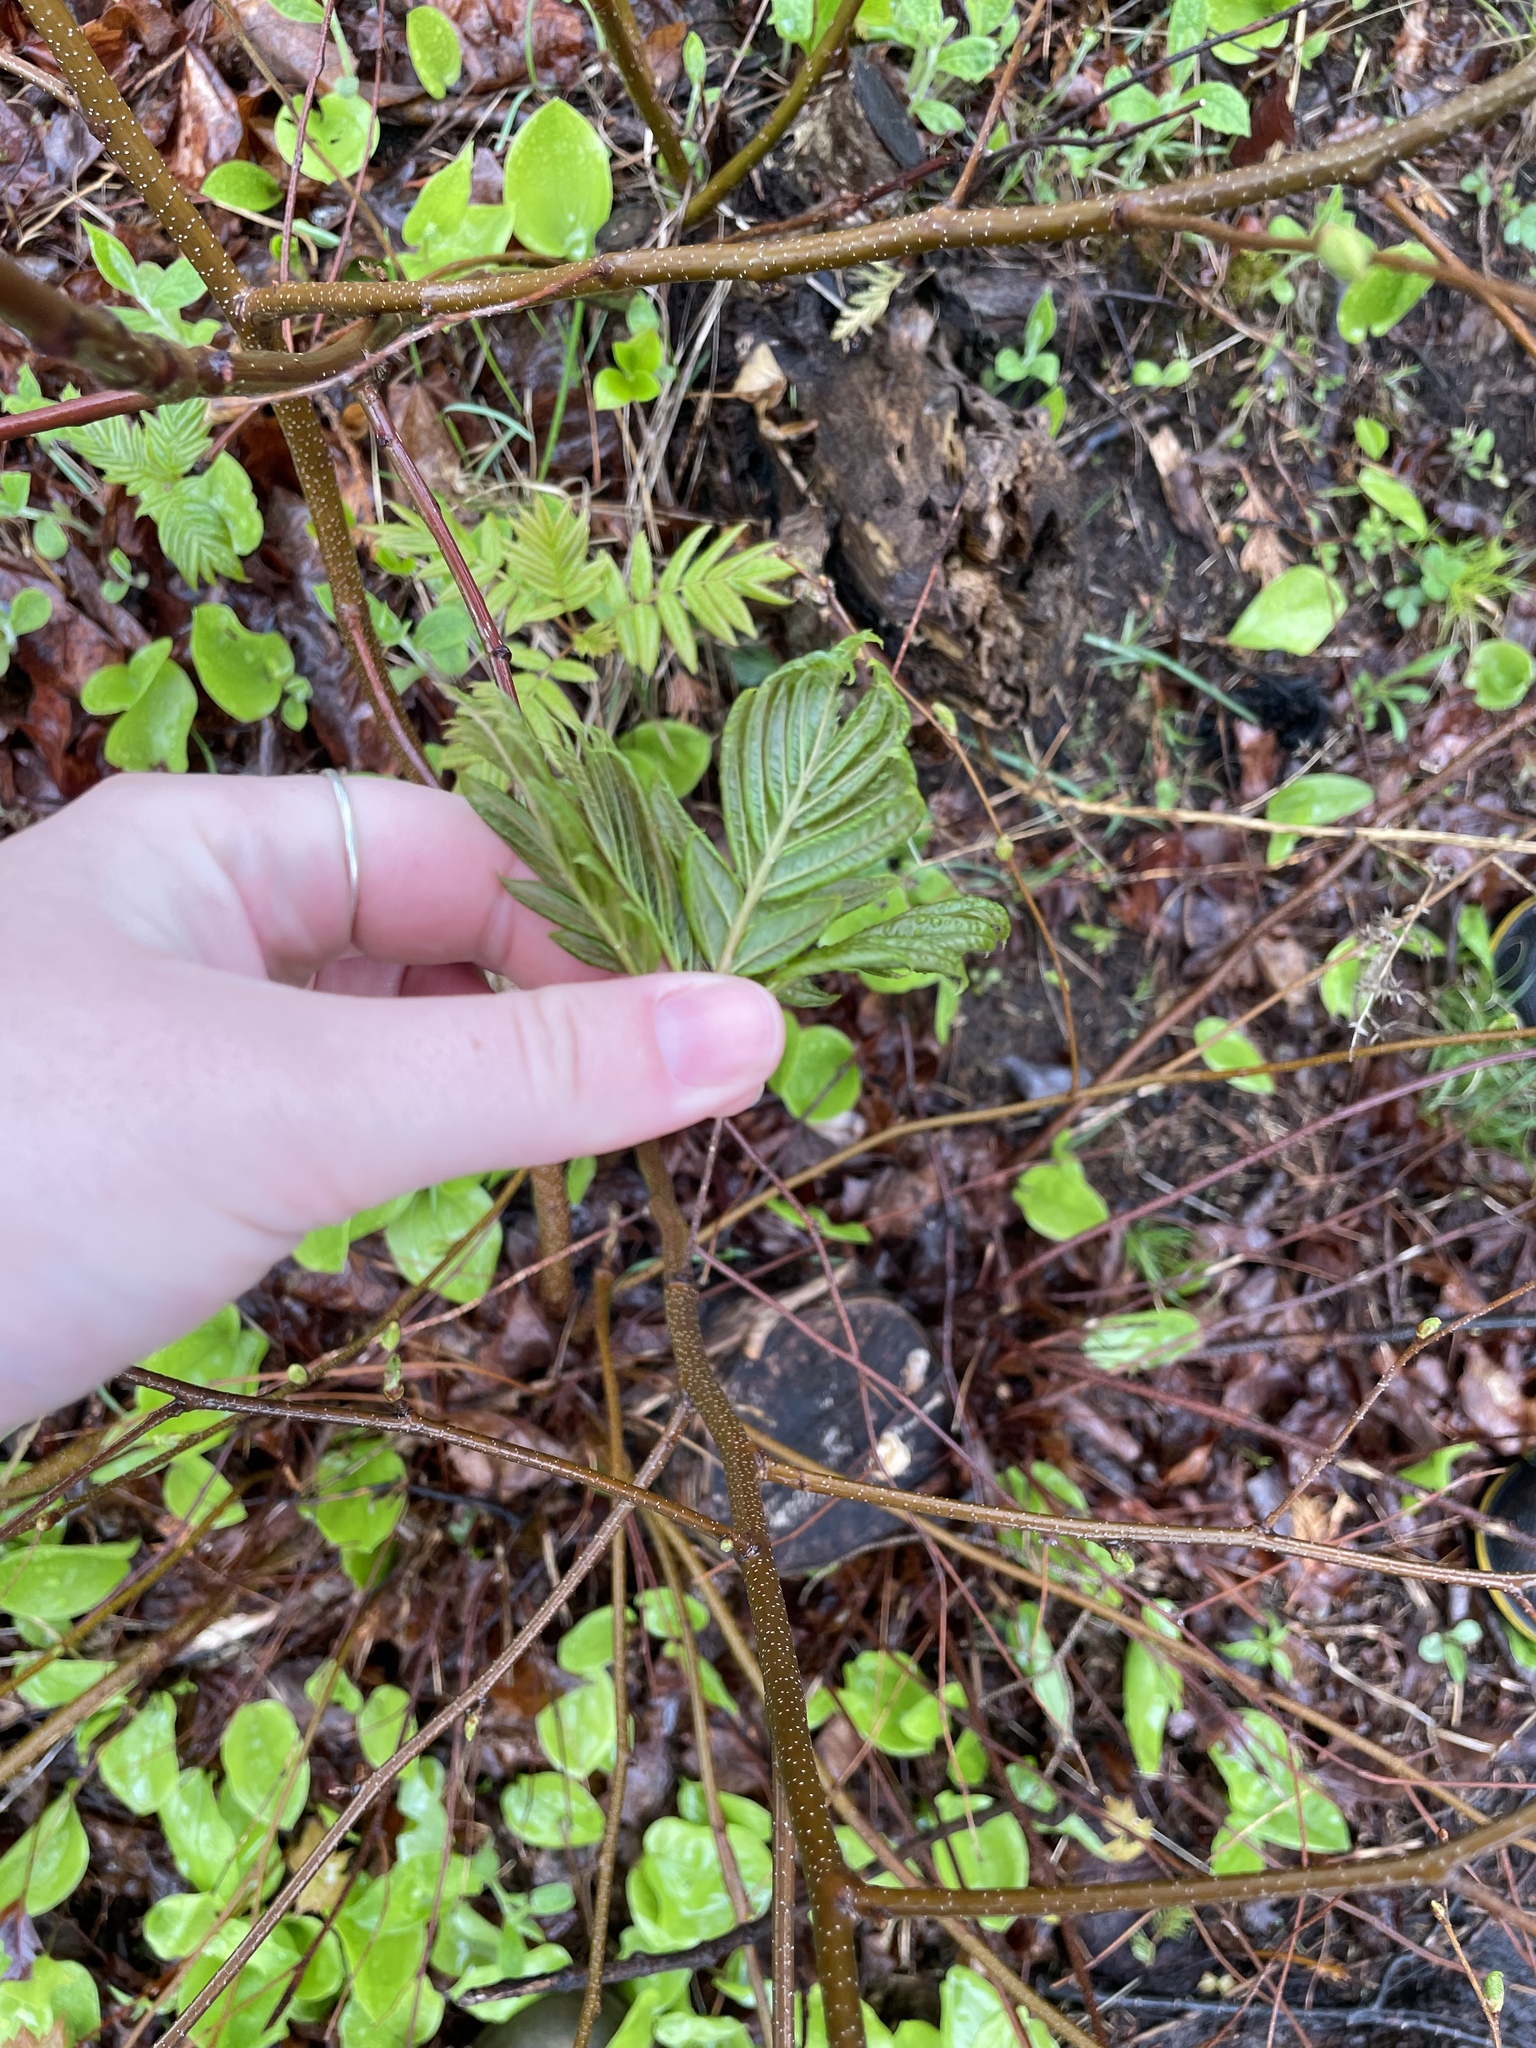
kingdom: Plantae
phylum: Tracheophyta
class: Magnoliopsida
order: Rosales
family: Rosaceae
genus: Sorbus
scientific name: Sorbus americana
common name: American mountain-ash
